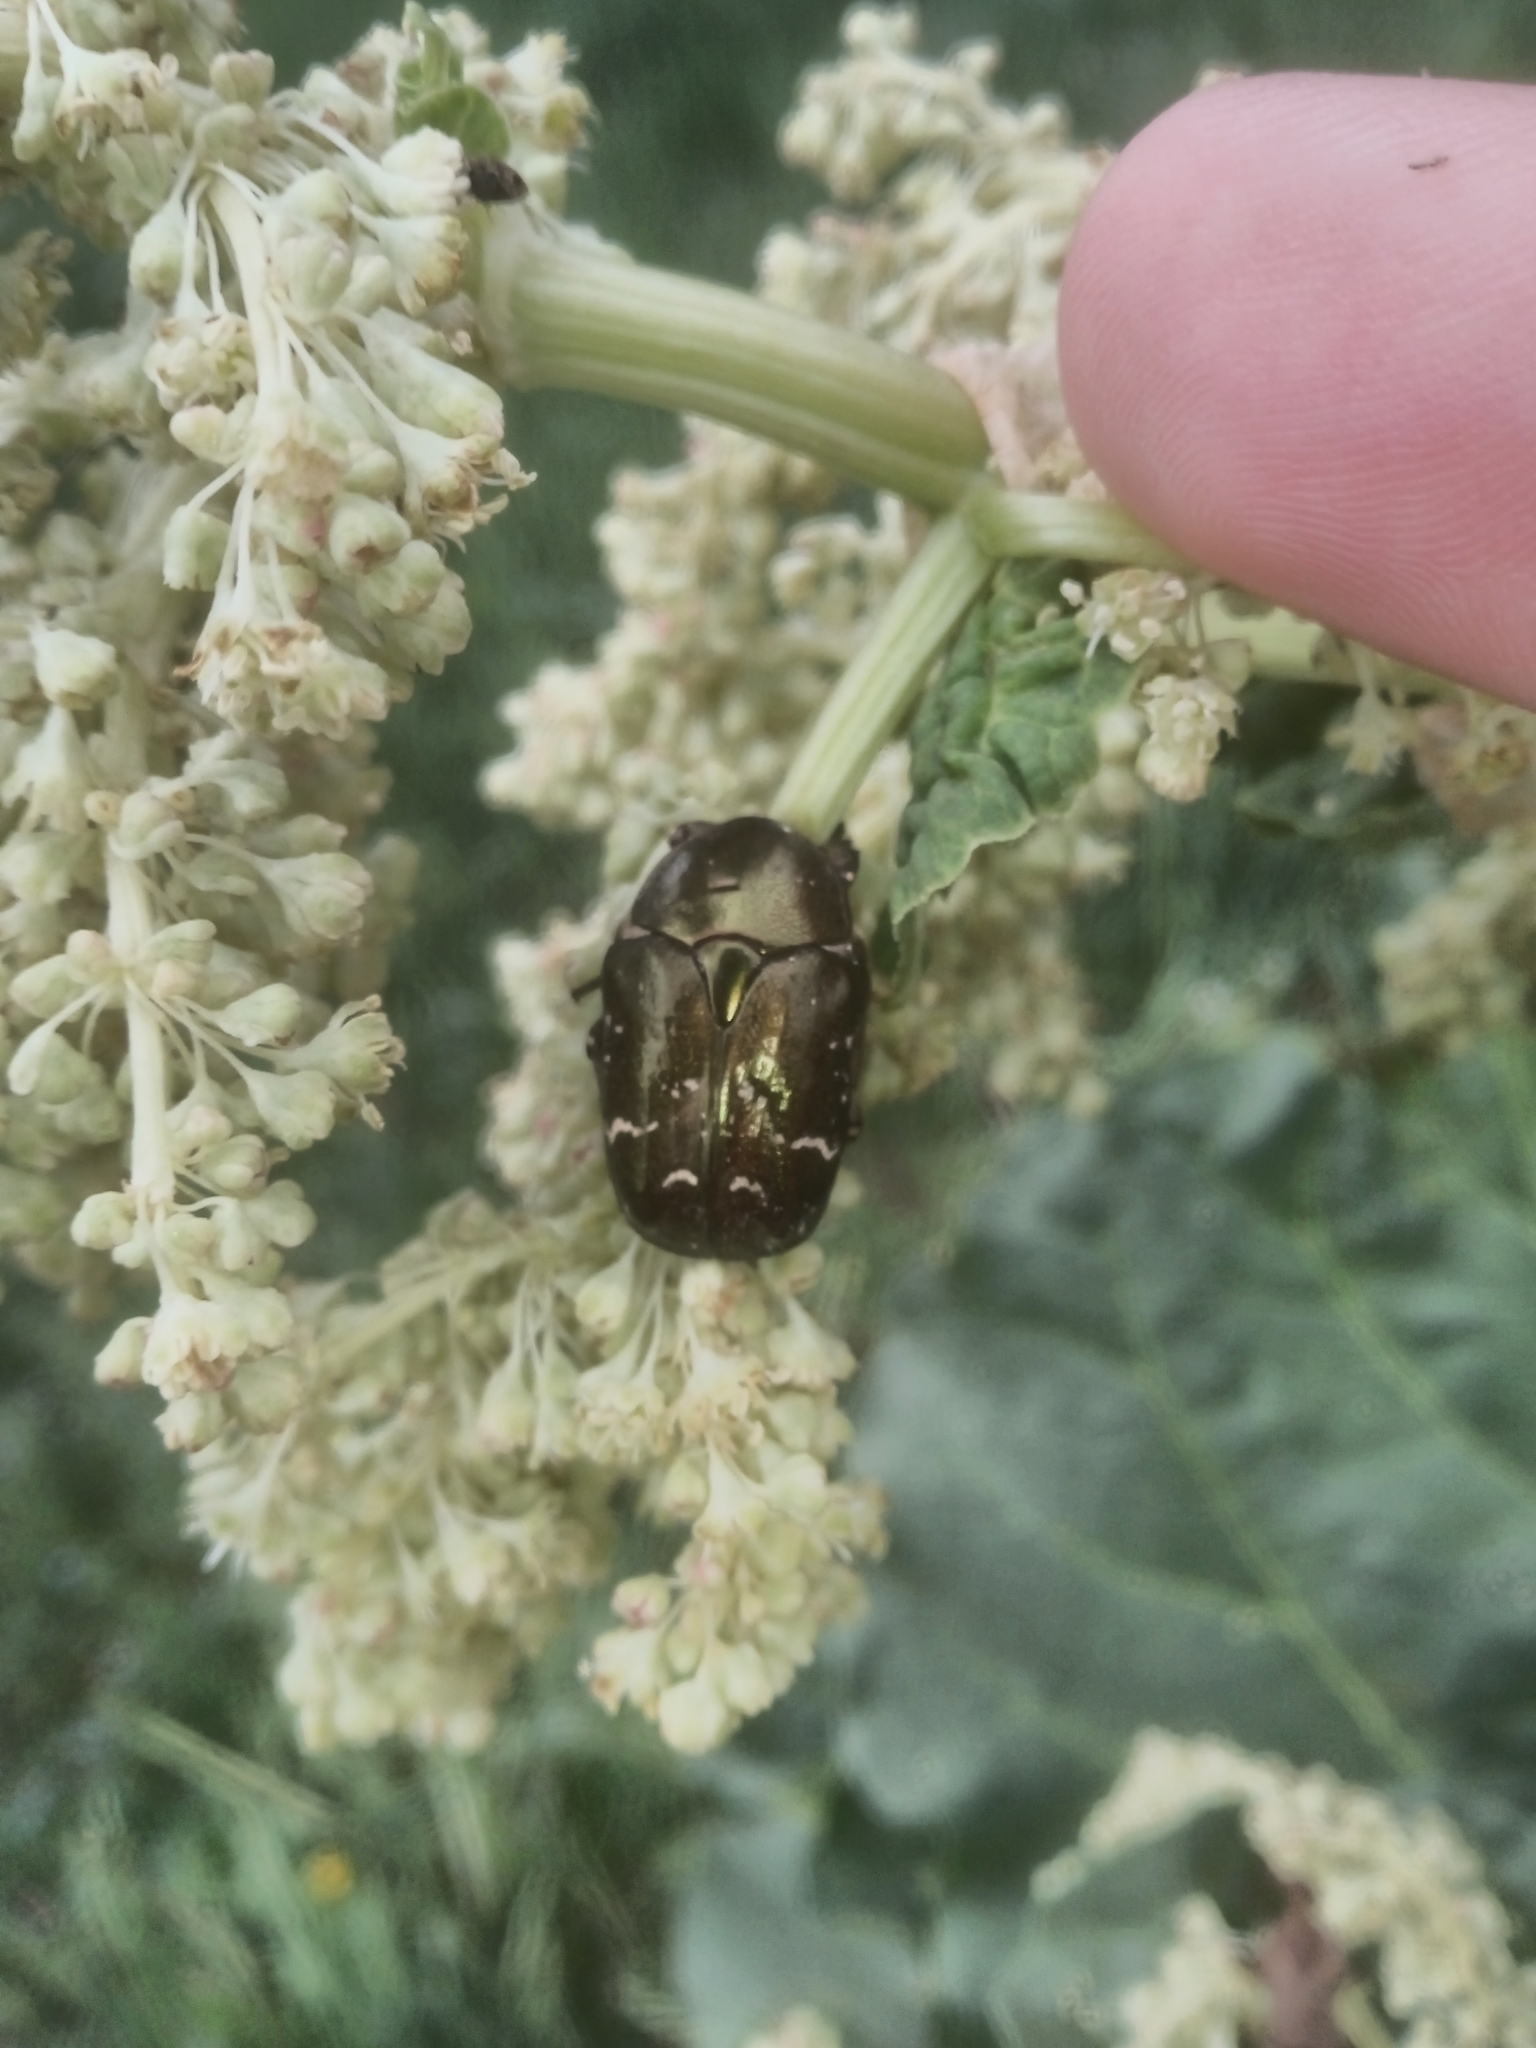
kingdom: Animalia
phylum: Arthropoda
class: Insecta
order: Coleoptera
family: Scarabaeidae
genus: Protaetia
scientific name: Protaetia cuprea
